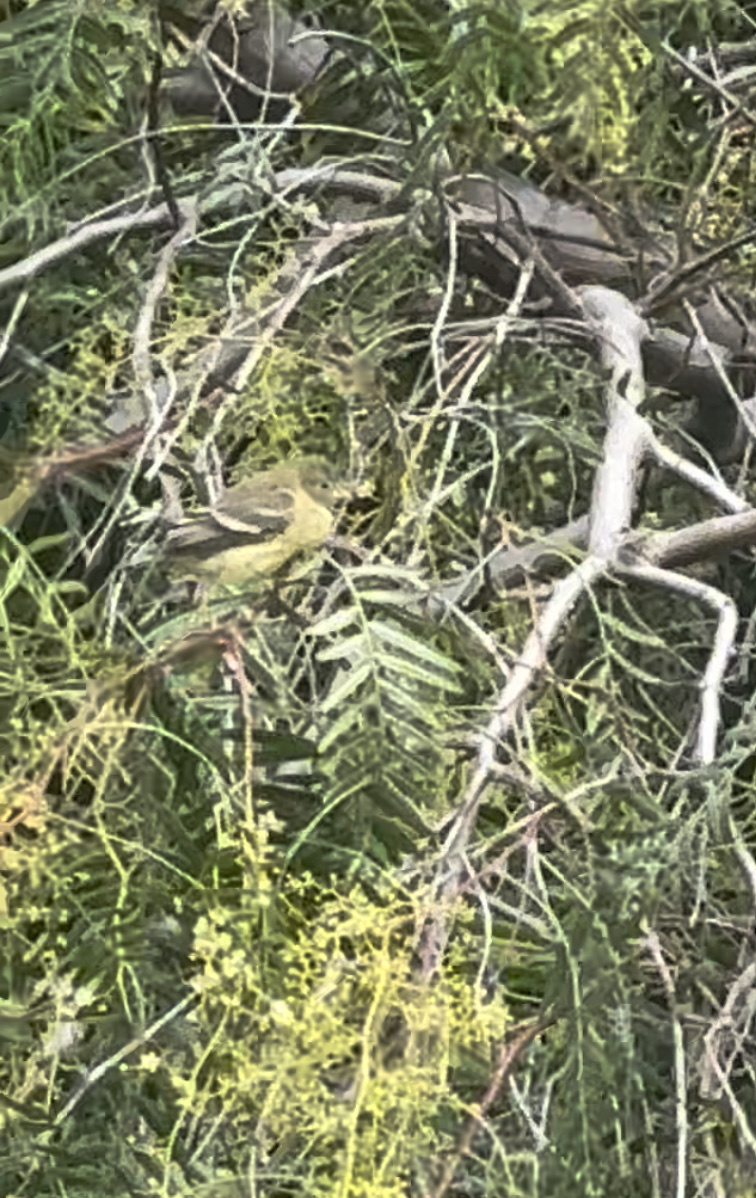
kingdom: Animalia
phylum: Chordata
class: Aves
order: Passeriformes
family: Fringillidae
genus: Spinus
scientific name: Spinus psaltria
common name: Lesser goldfinch
